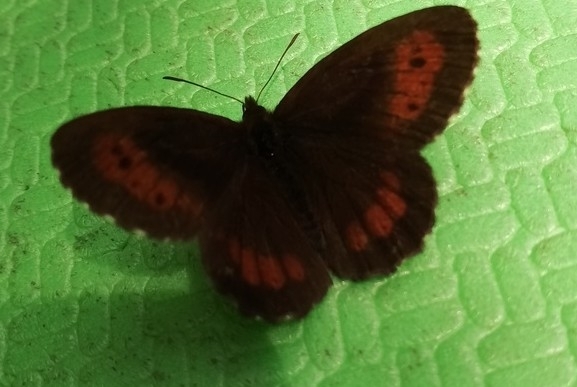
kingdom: Animalia
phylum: Arthropoda
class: Insecta
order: Lepidoptera
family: Nymphalidae
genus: Erebia
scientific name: Erebia euryale
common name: Large ringlet
